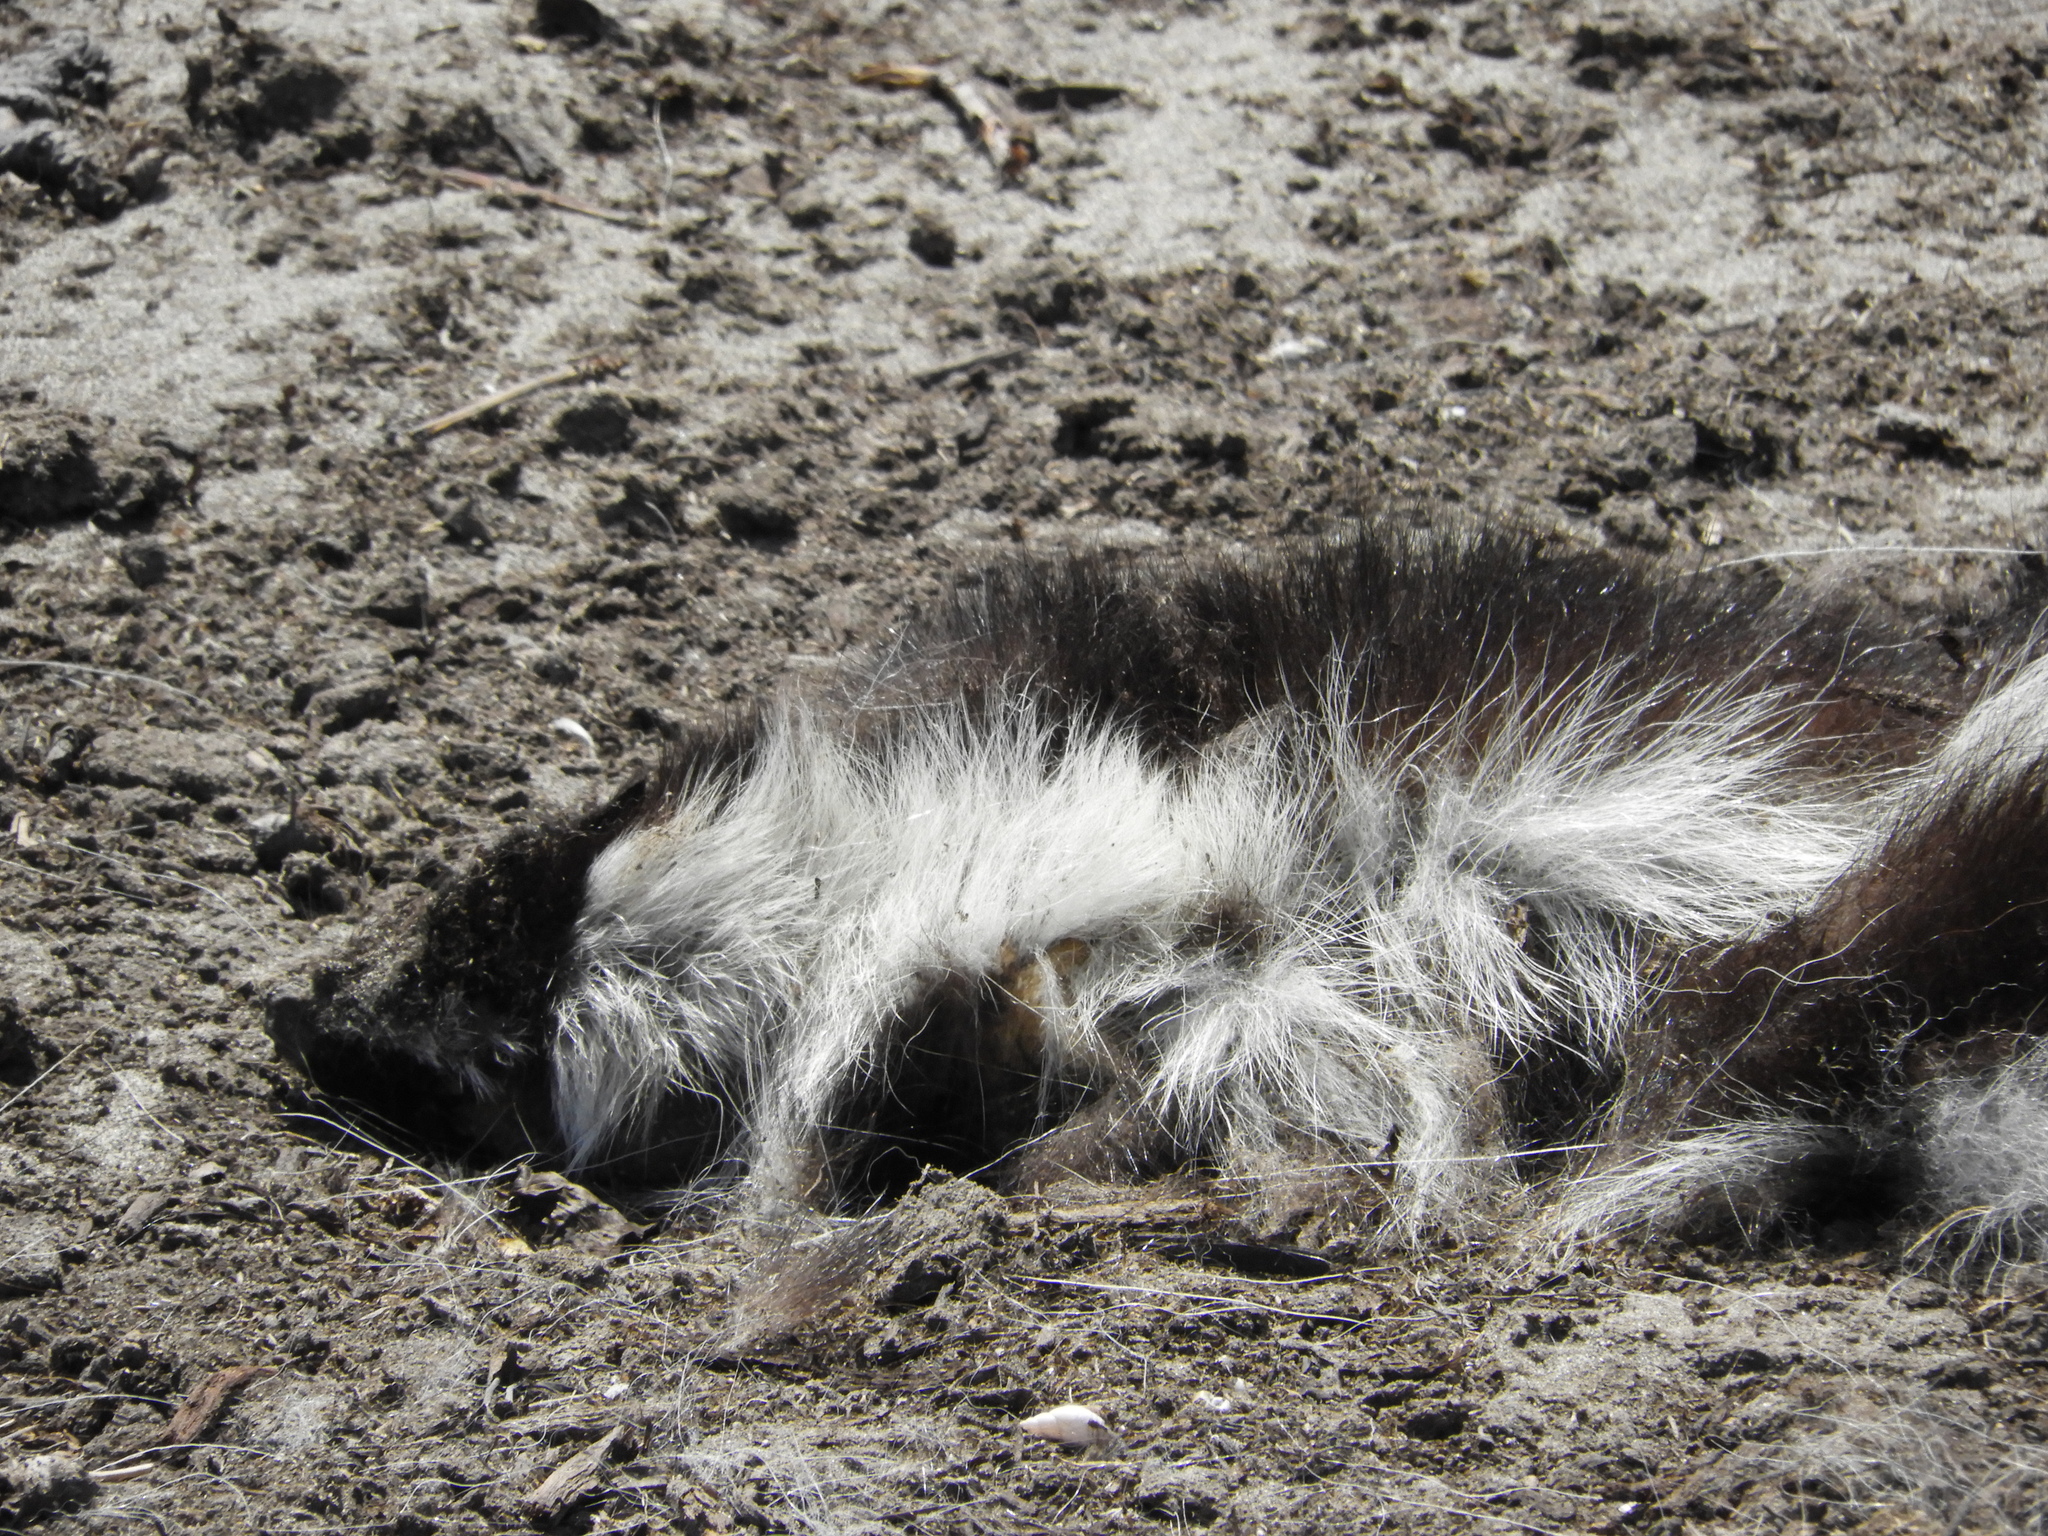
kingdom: Animalia
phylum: Chordata
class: Mammalia
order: Carnivora
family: Mephitidae
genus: Mephitis
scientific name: Mephitis mephitis
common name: Striped skunk
